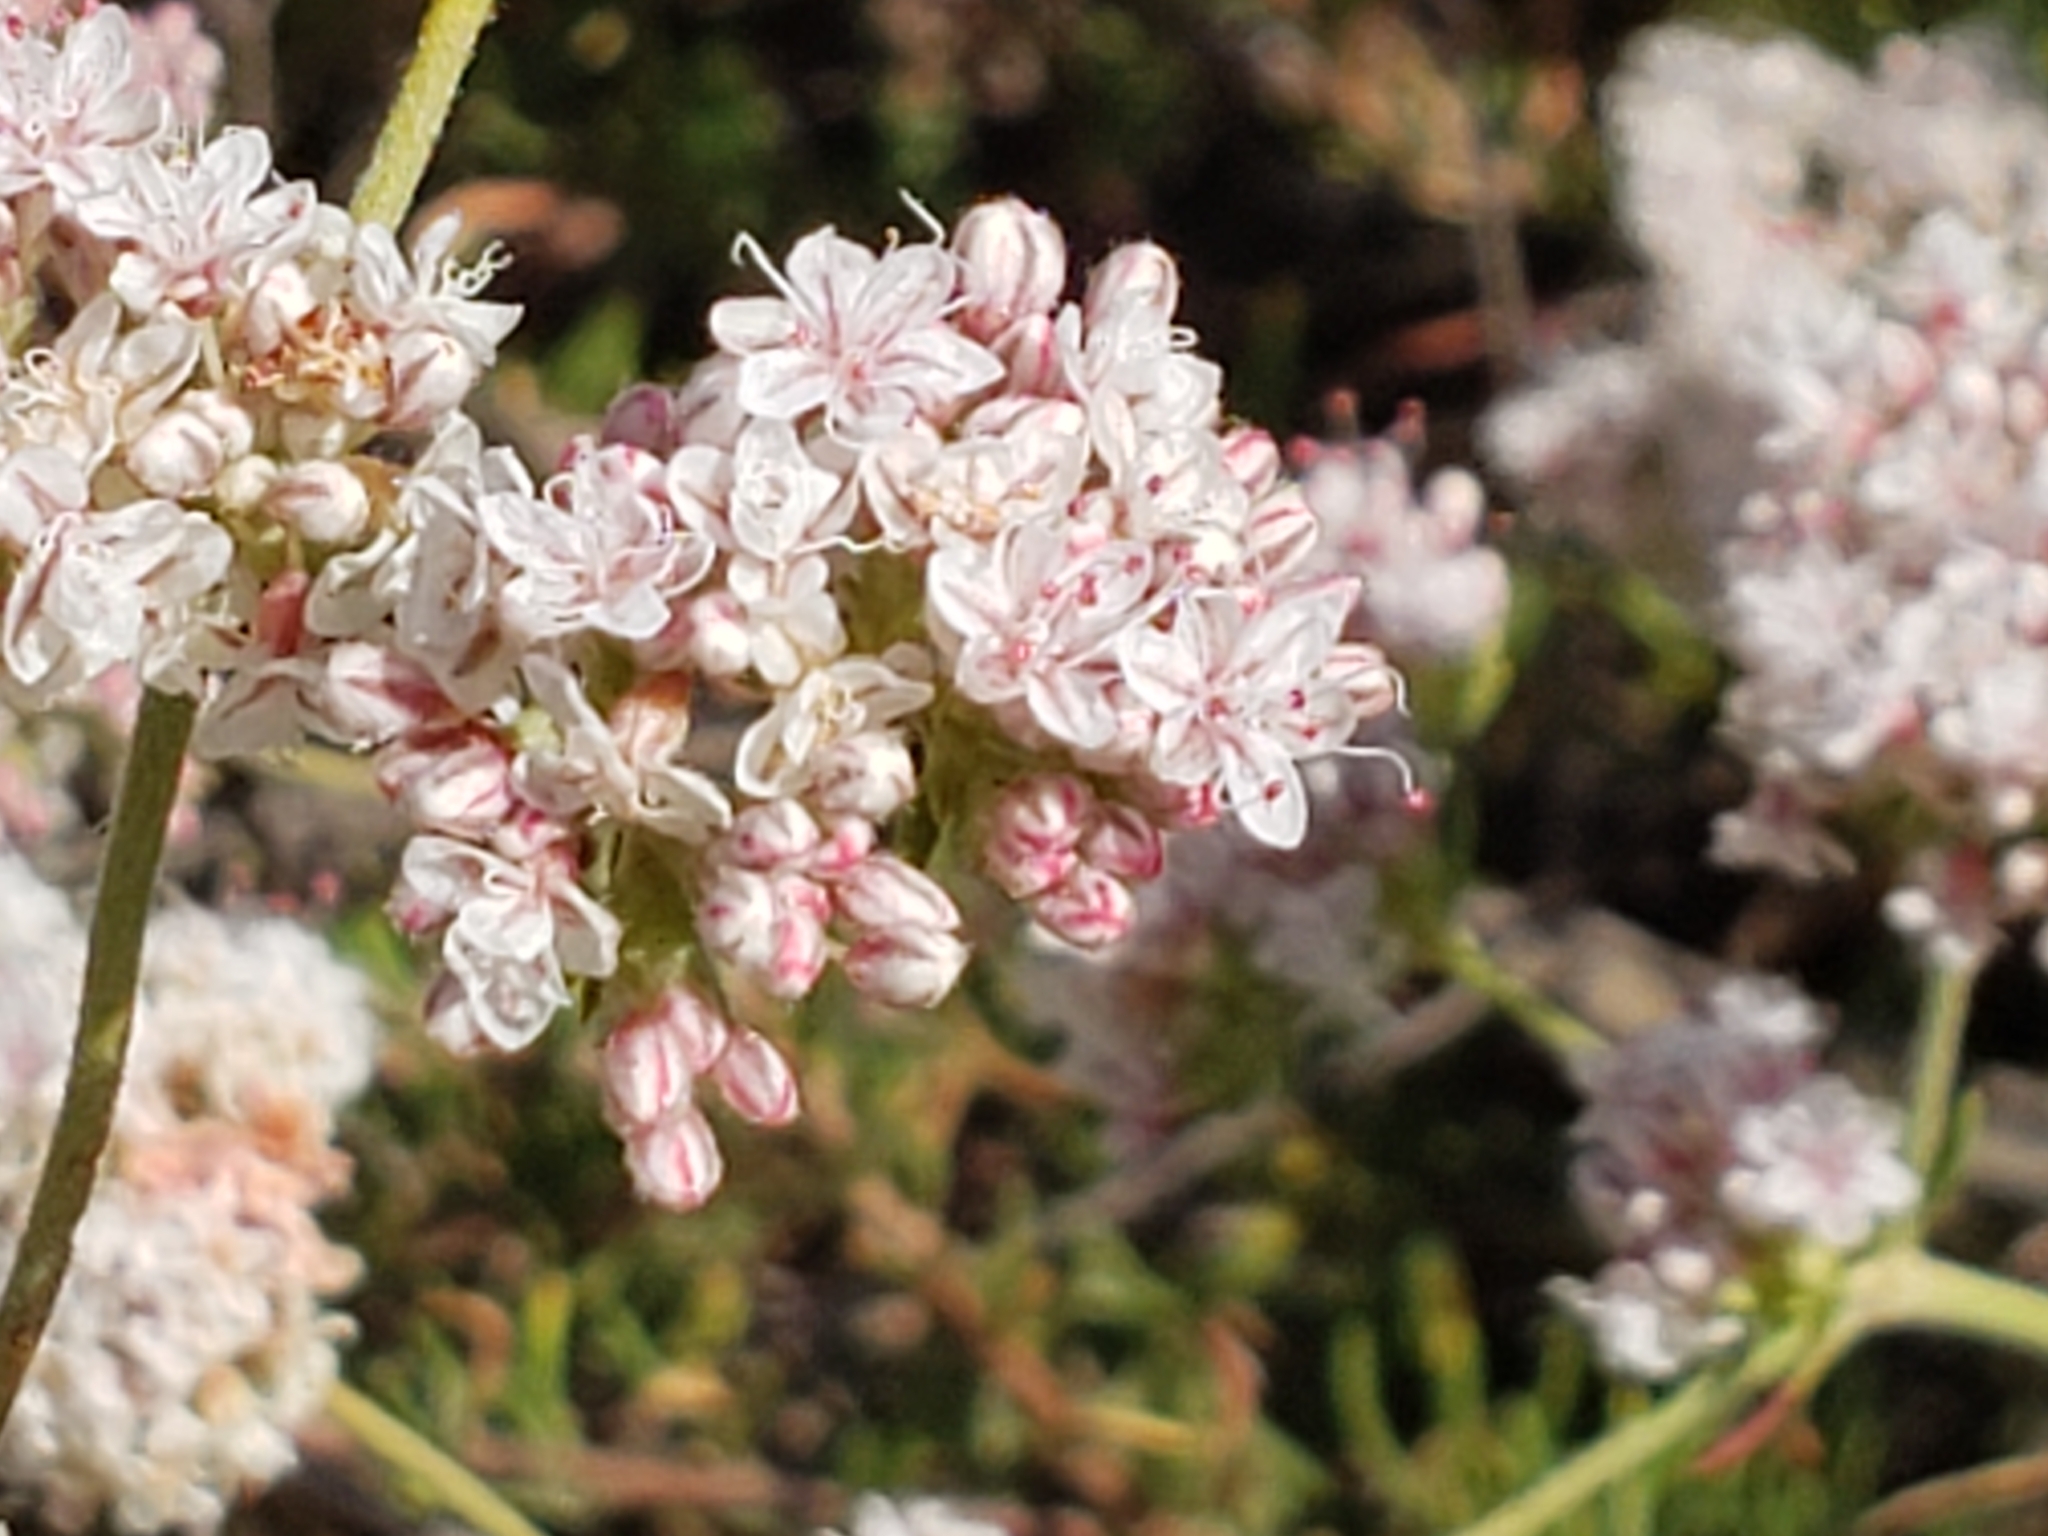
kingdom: Plantae
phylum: Tracheophyta
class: Magnoliopsida
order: Caryophyllales
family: Polygonaceae
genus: Eriogonum
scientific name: Eriogonum fasciculatum
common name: California wild buckwheat
